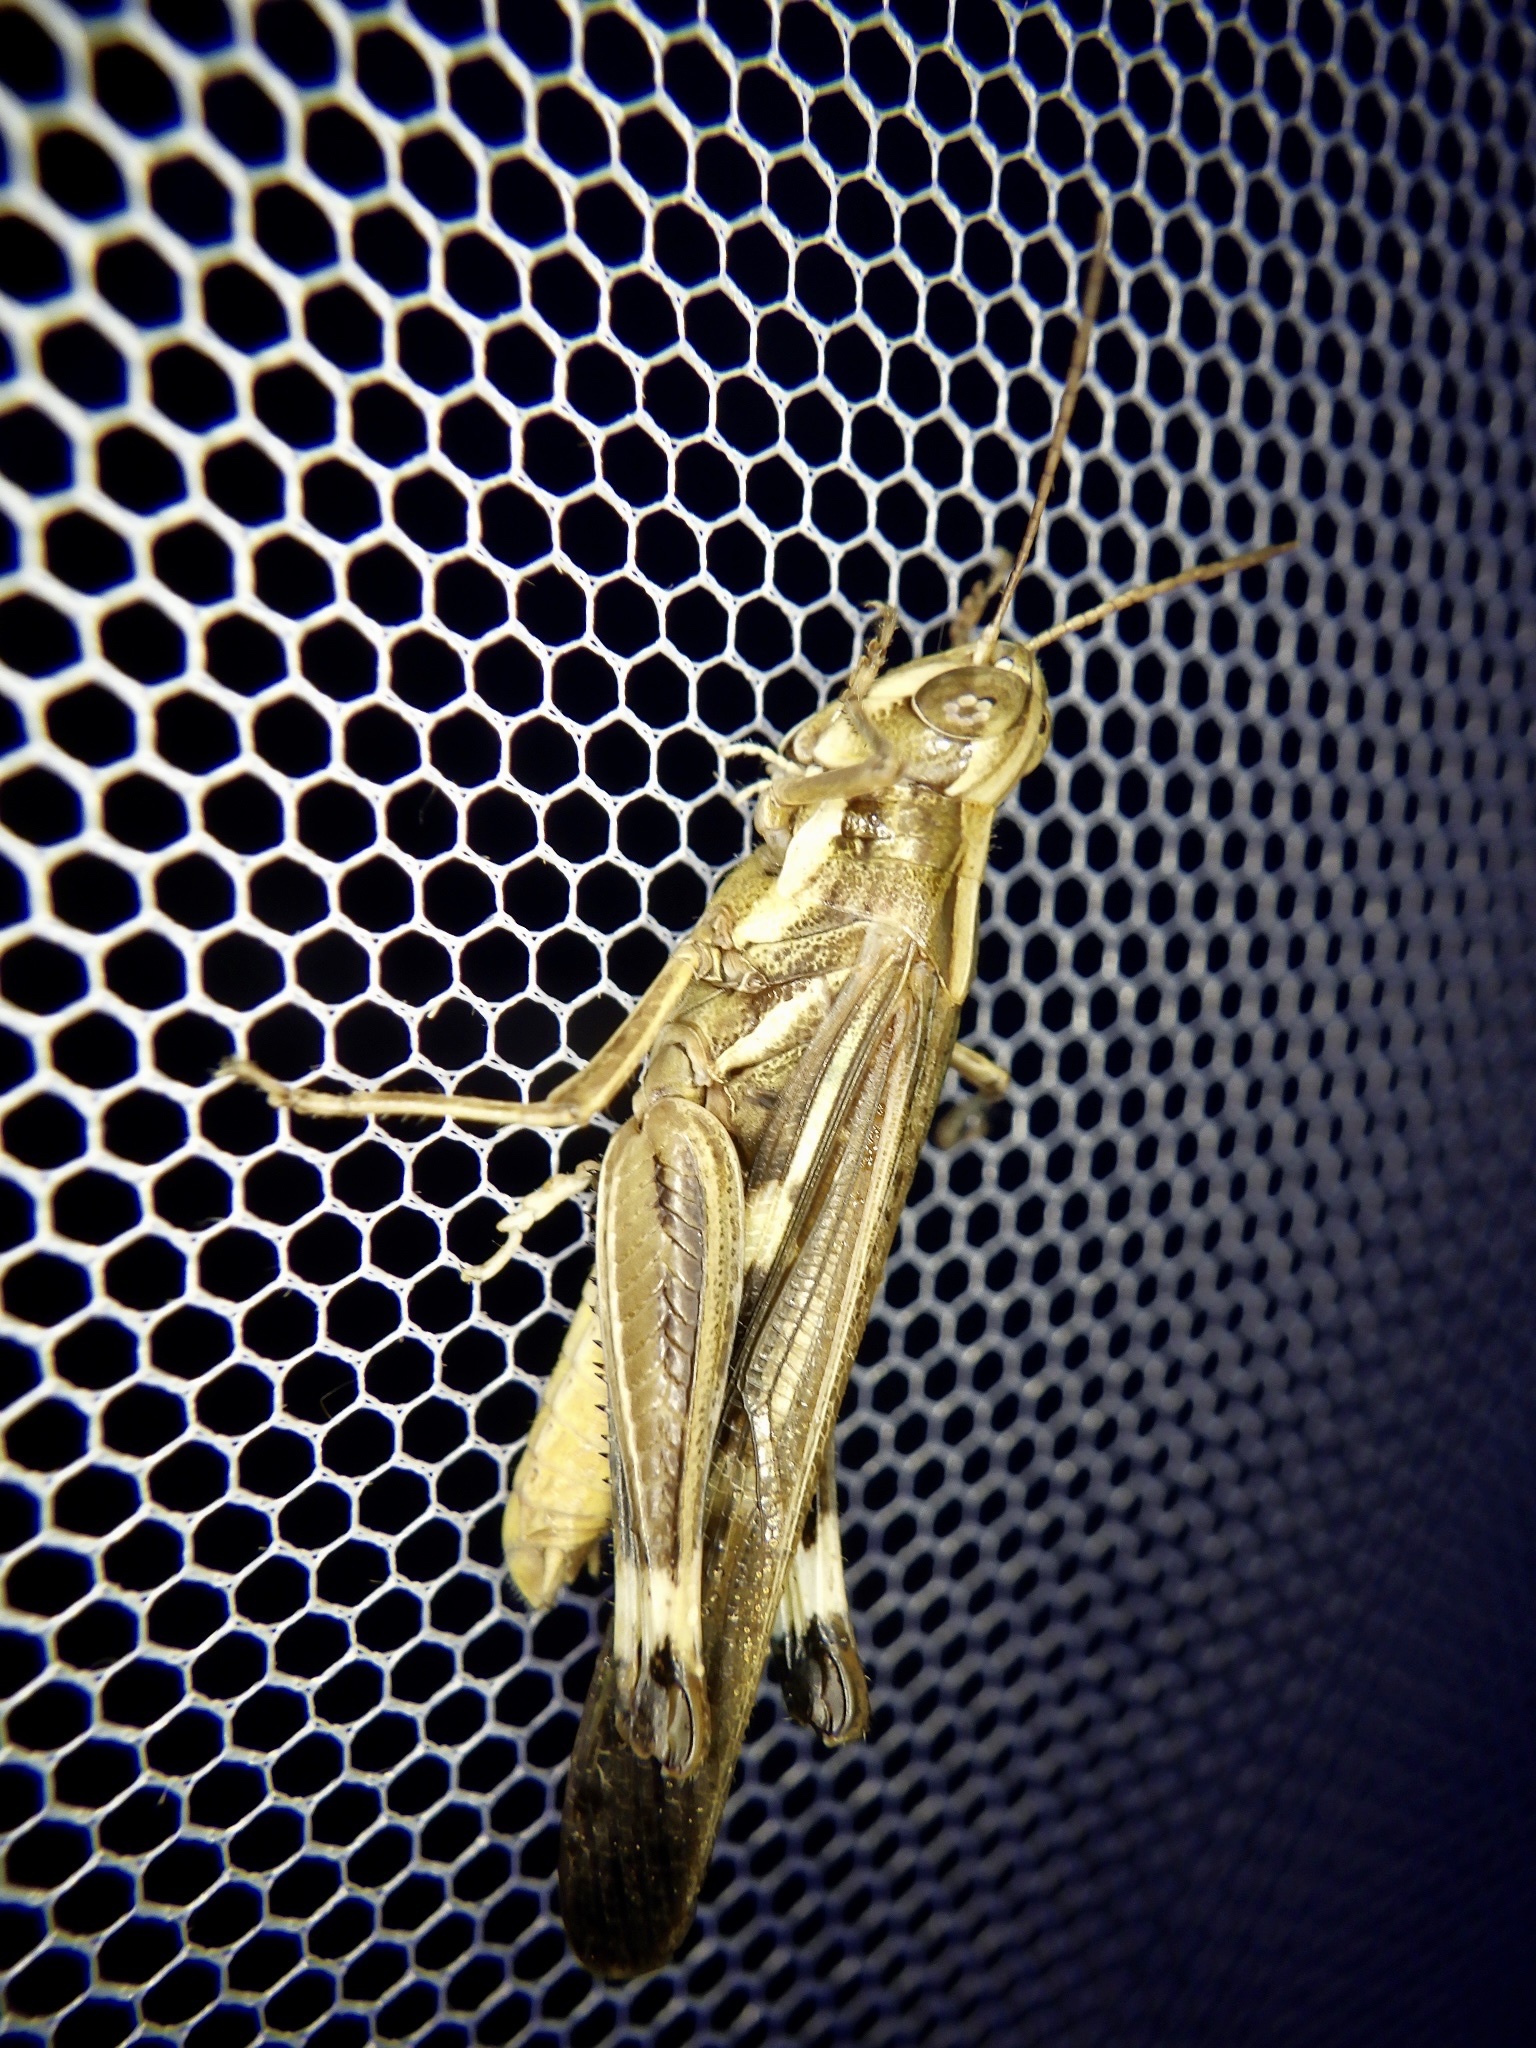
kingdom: Animalia
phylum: Arthropoda
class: Insecta
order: Orthoptera
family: Acrididae
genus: Aiolopus
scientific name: Aiolopus thalassinus
